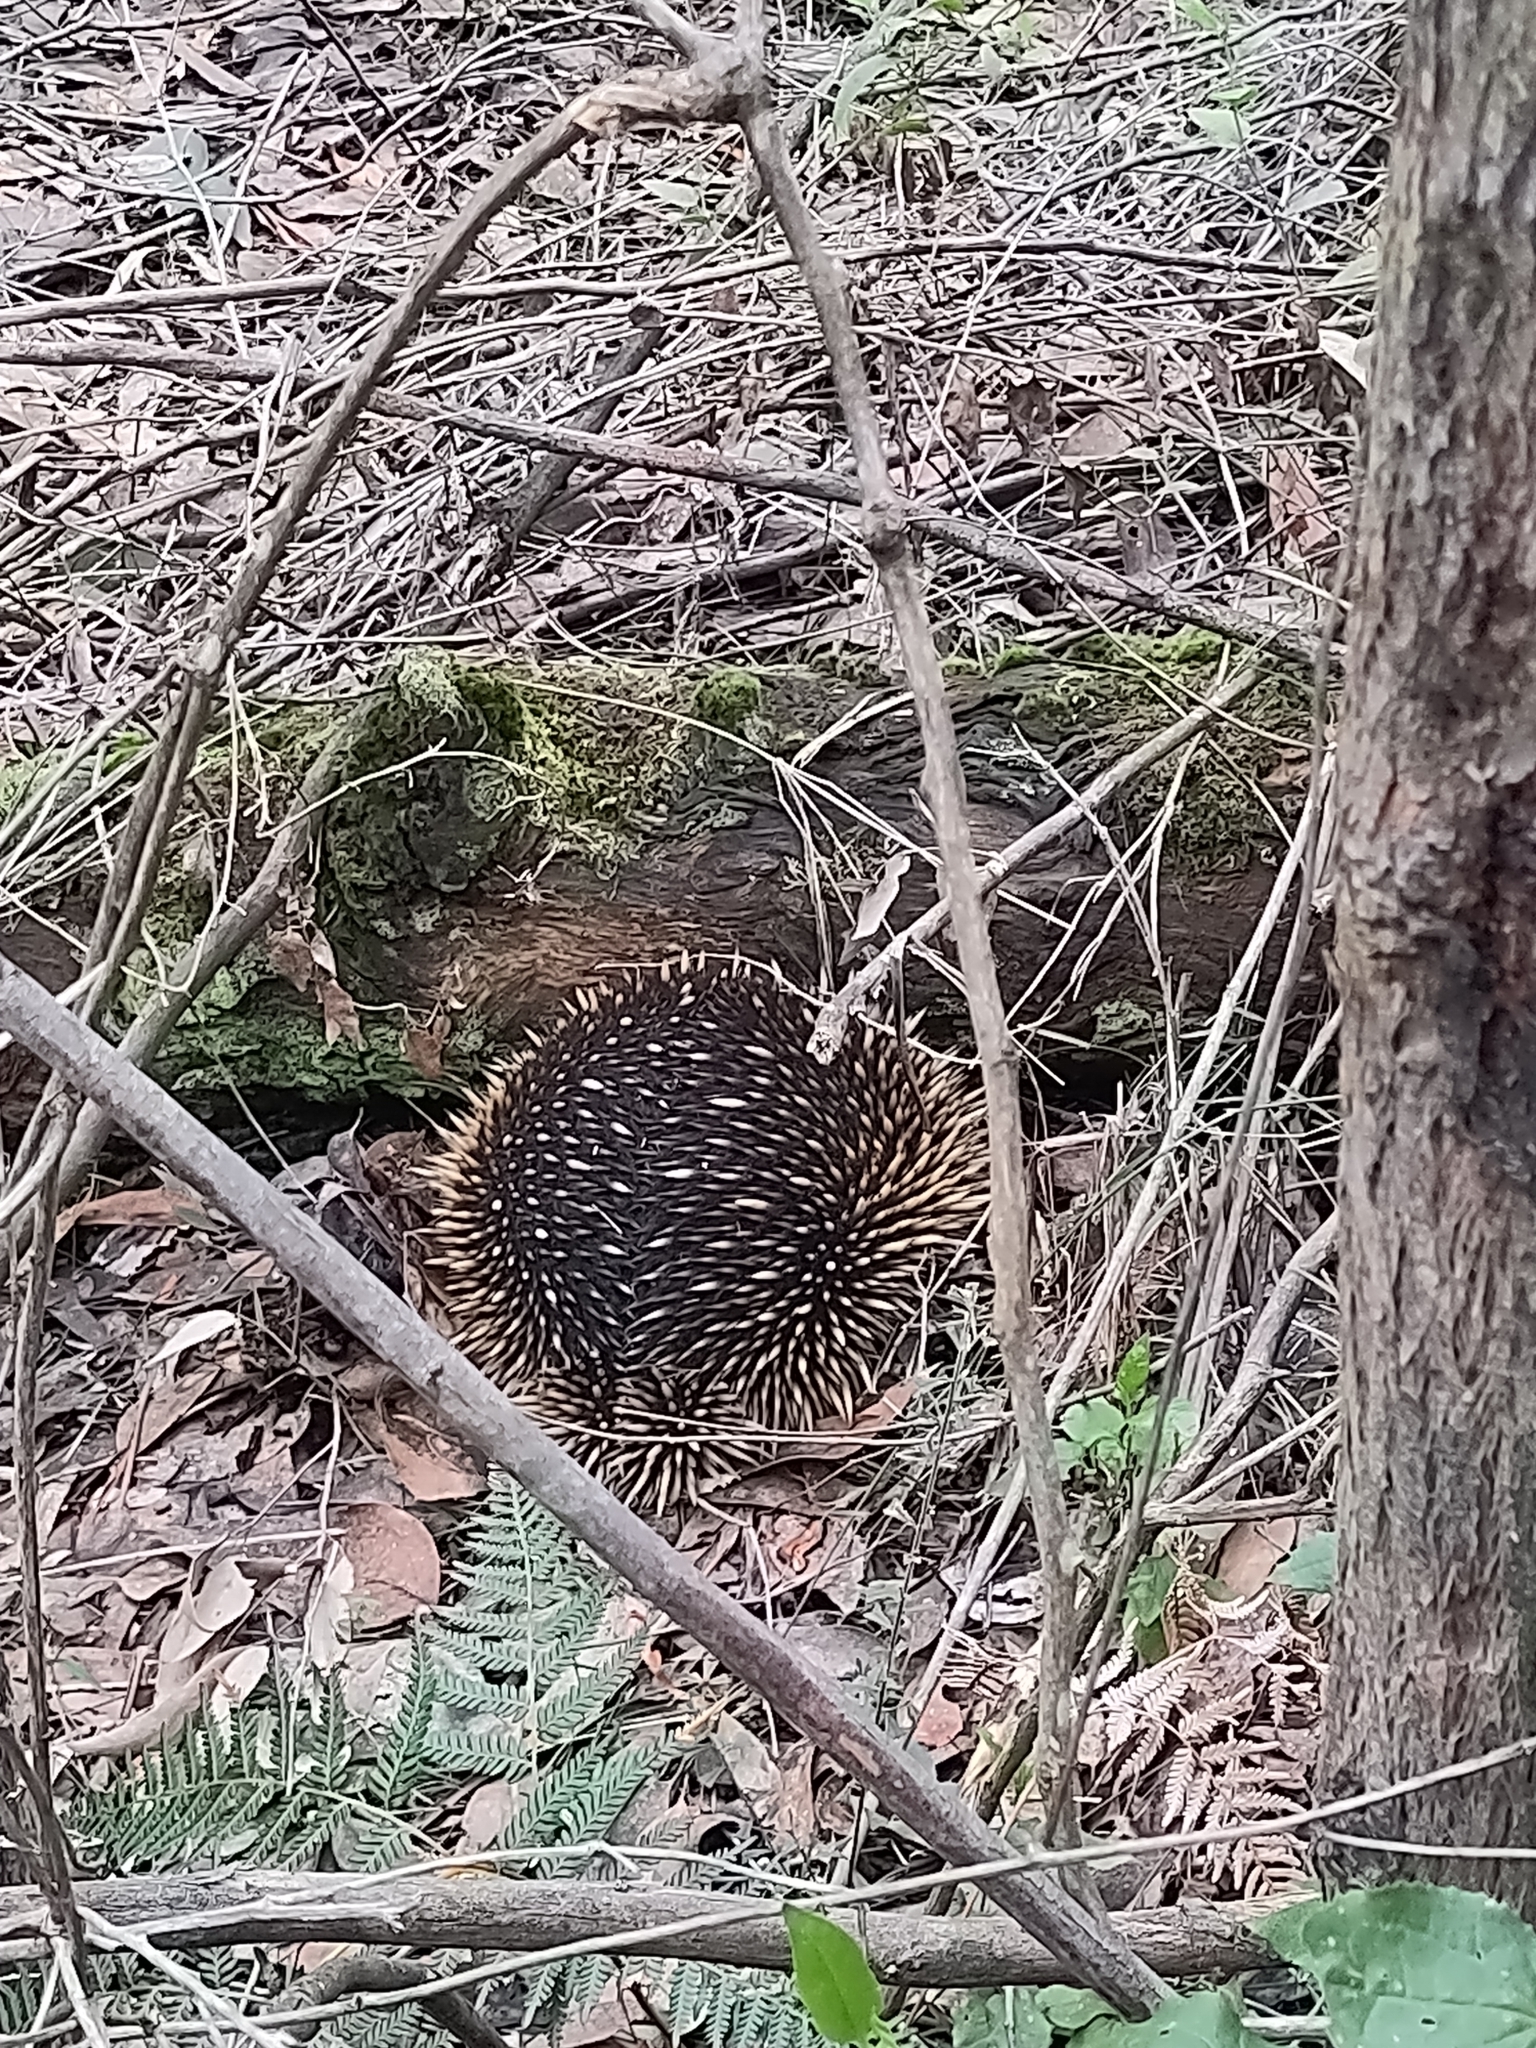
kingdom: Animalia
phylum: Chordata
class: Mammalia
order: Monotremata
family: Tachyglossidae
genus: Tachyglossus
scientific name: Tachyglossus aculeatus
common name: Short-beaked echidna
